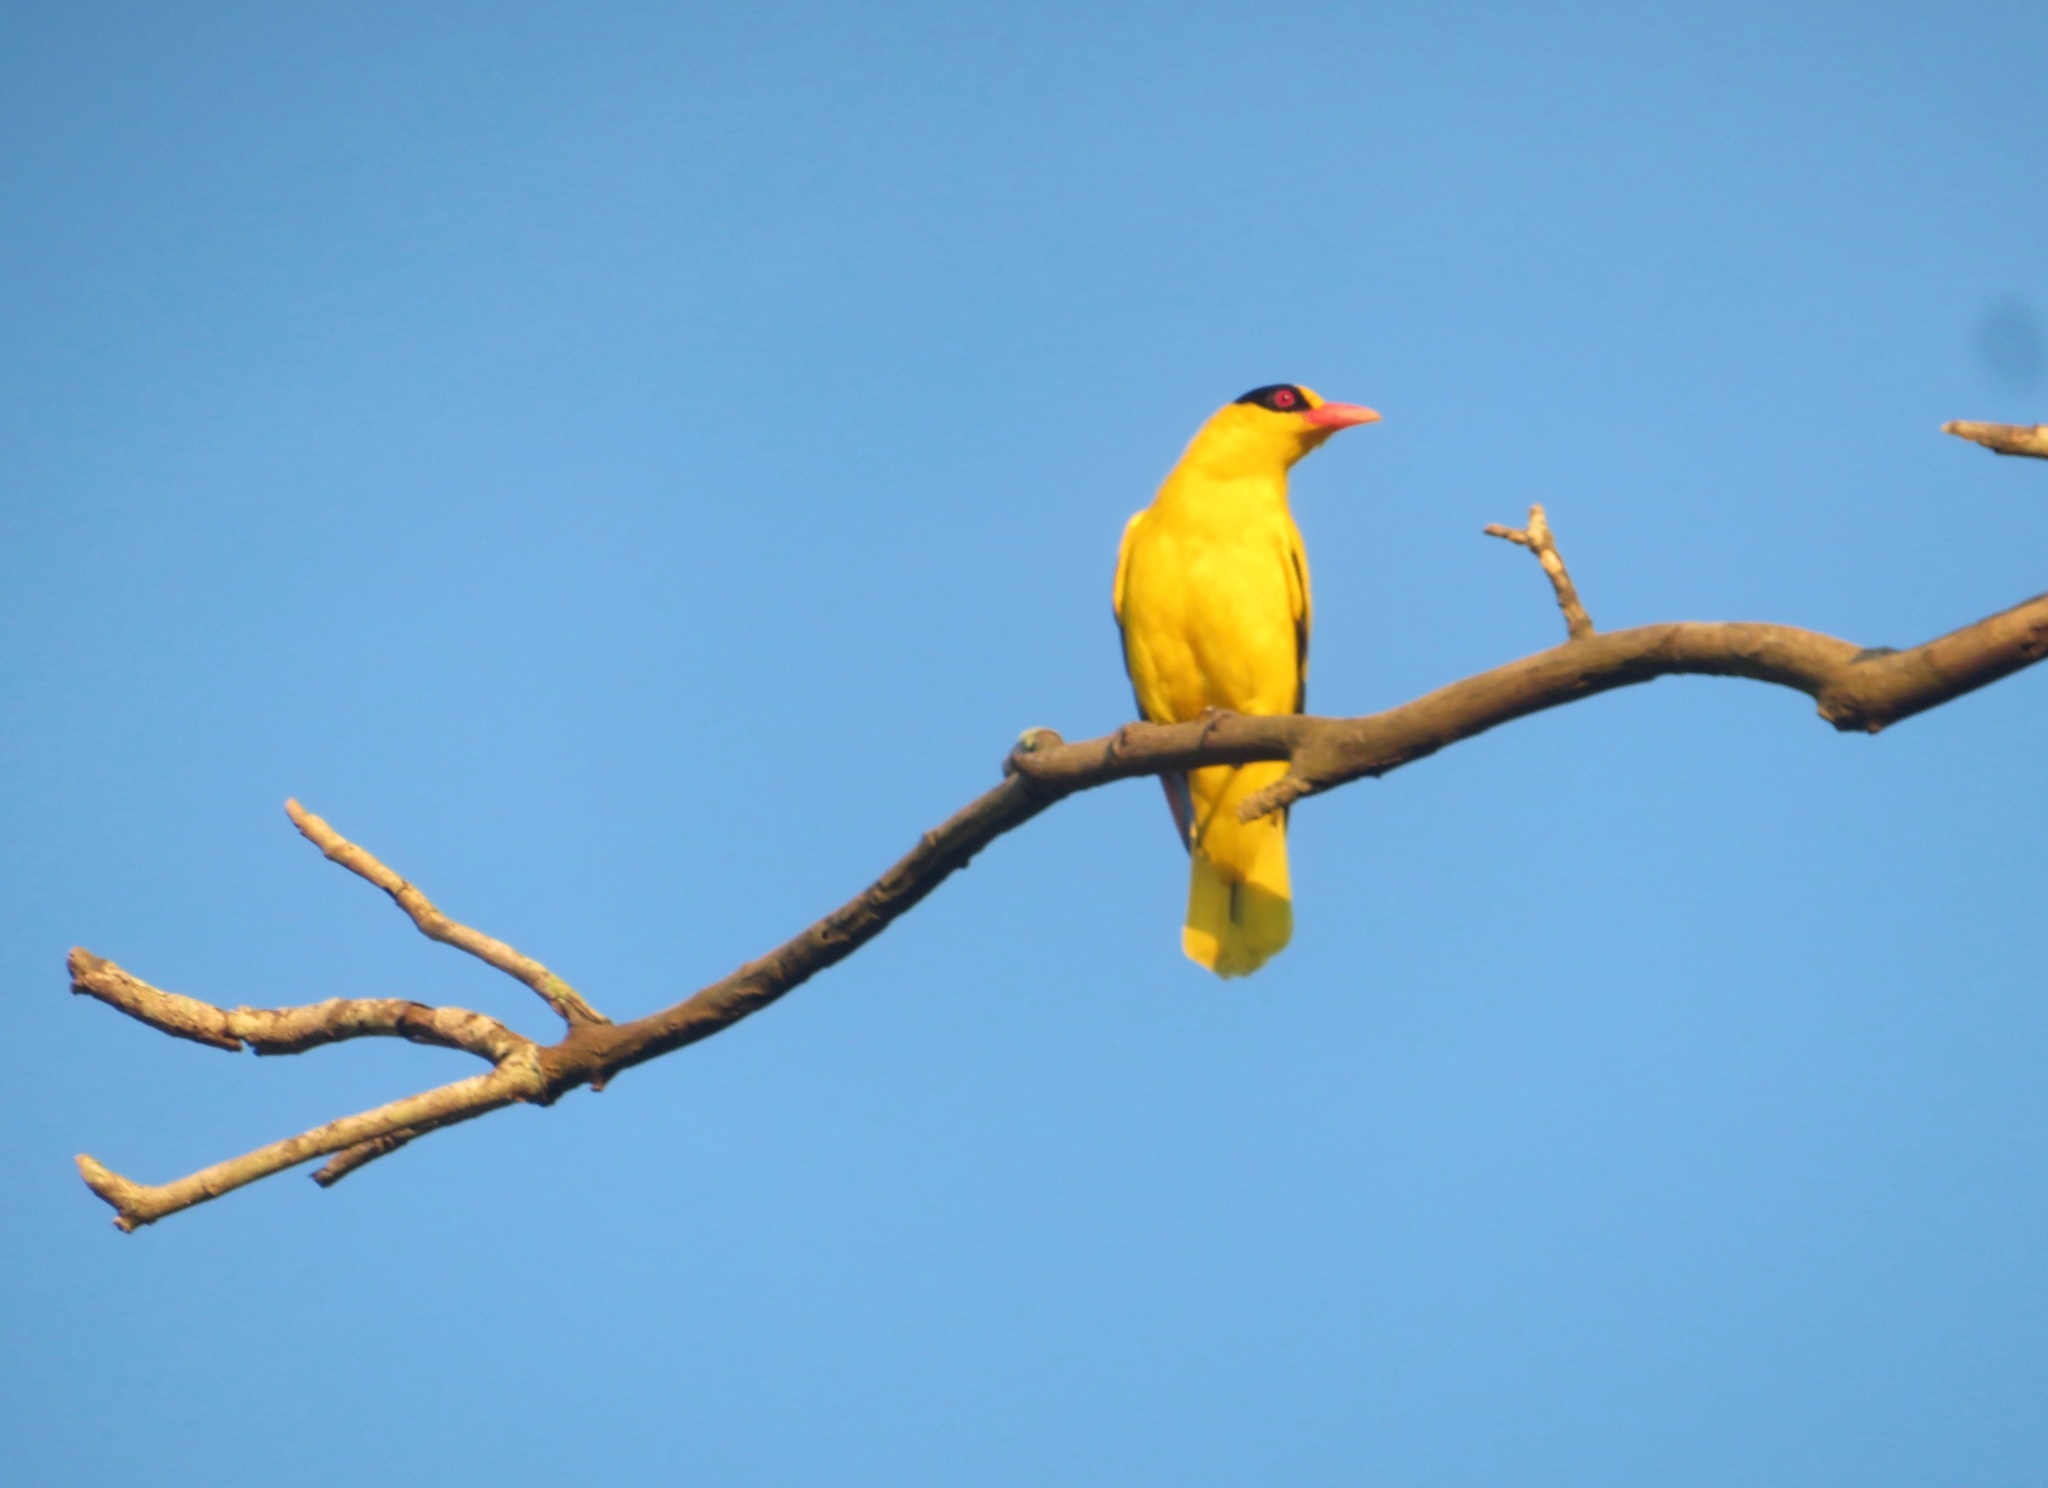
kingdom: Animalia
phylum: Chordata
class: Aves
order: Passeriformes
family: Oriolidae
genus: Oriolus
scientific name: Oriolus chinensis
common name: Black-naped oriole
